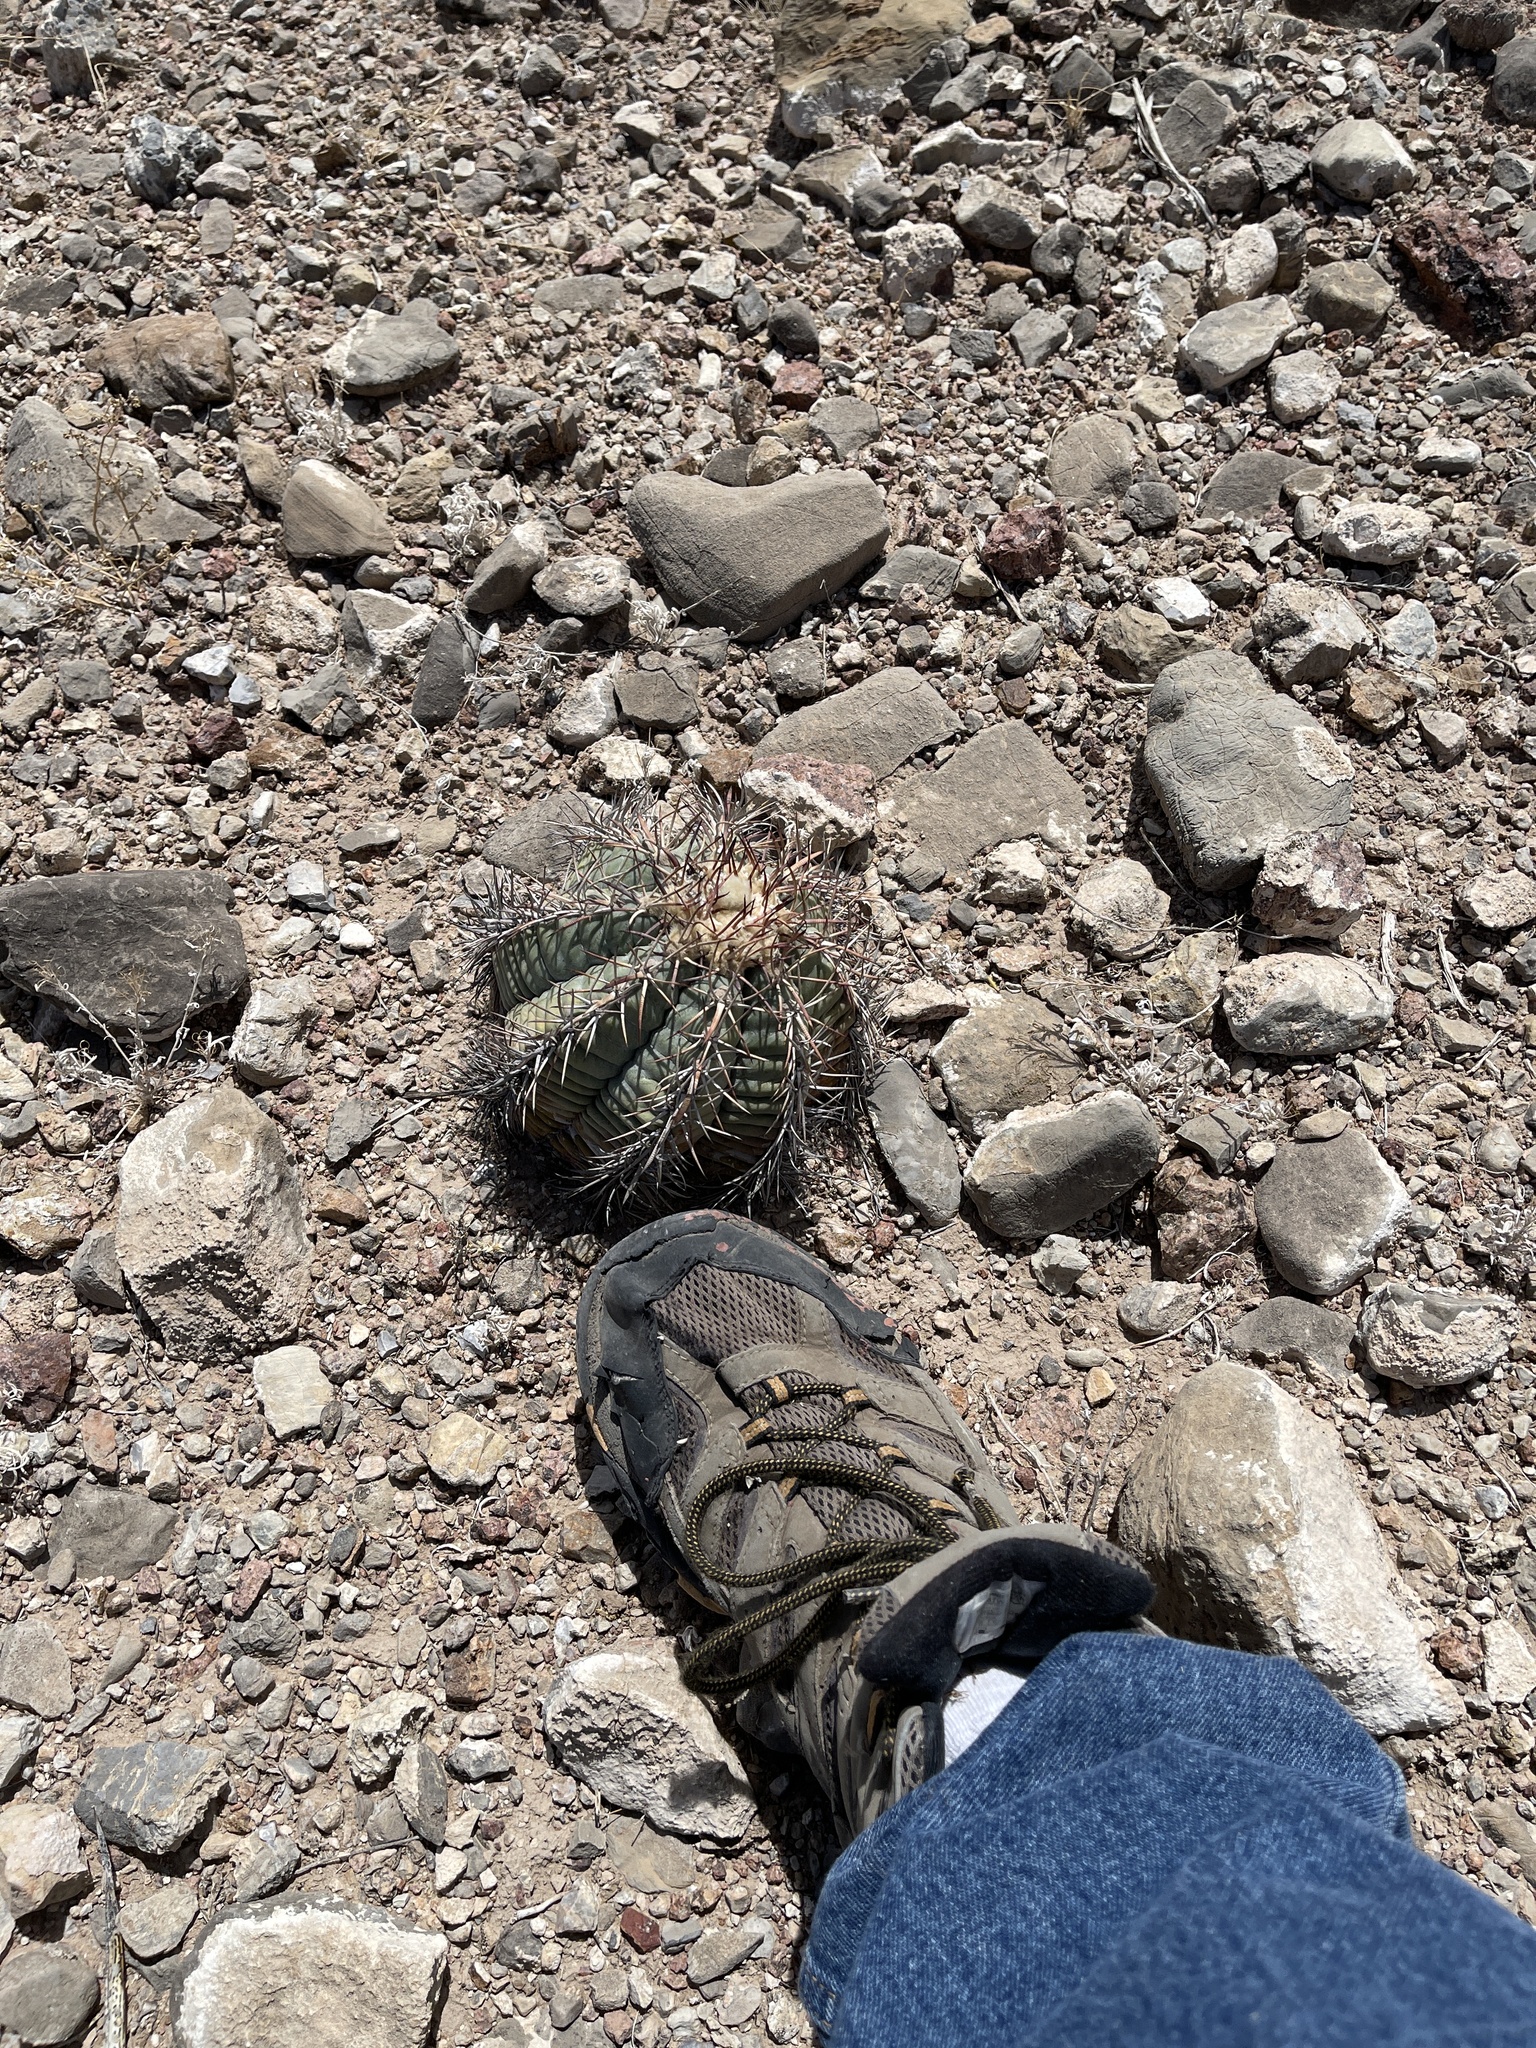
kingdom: Plantae
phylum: Tracheophyta
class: Magnoliopsida
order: Caryophyllales
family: Cactaceae
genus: Echinocactus
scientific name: Echinocactus horizonthalonius
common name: Devilshead
